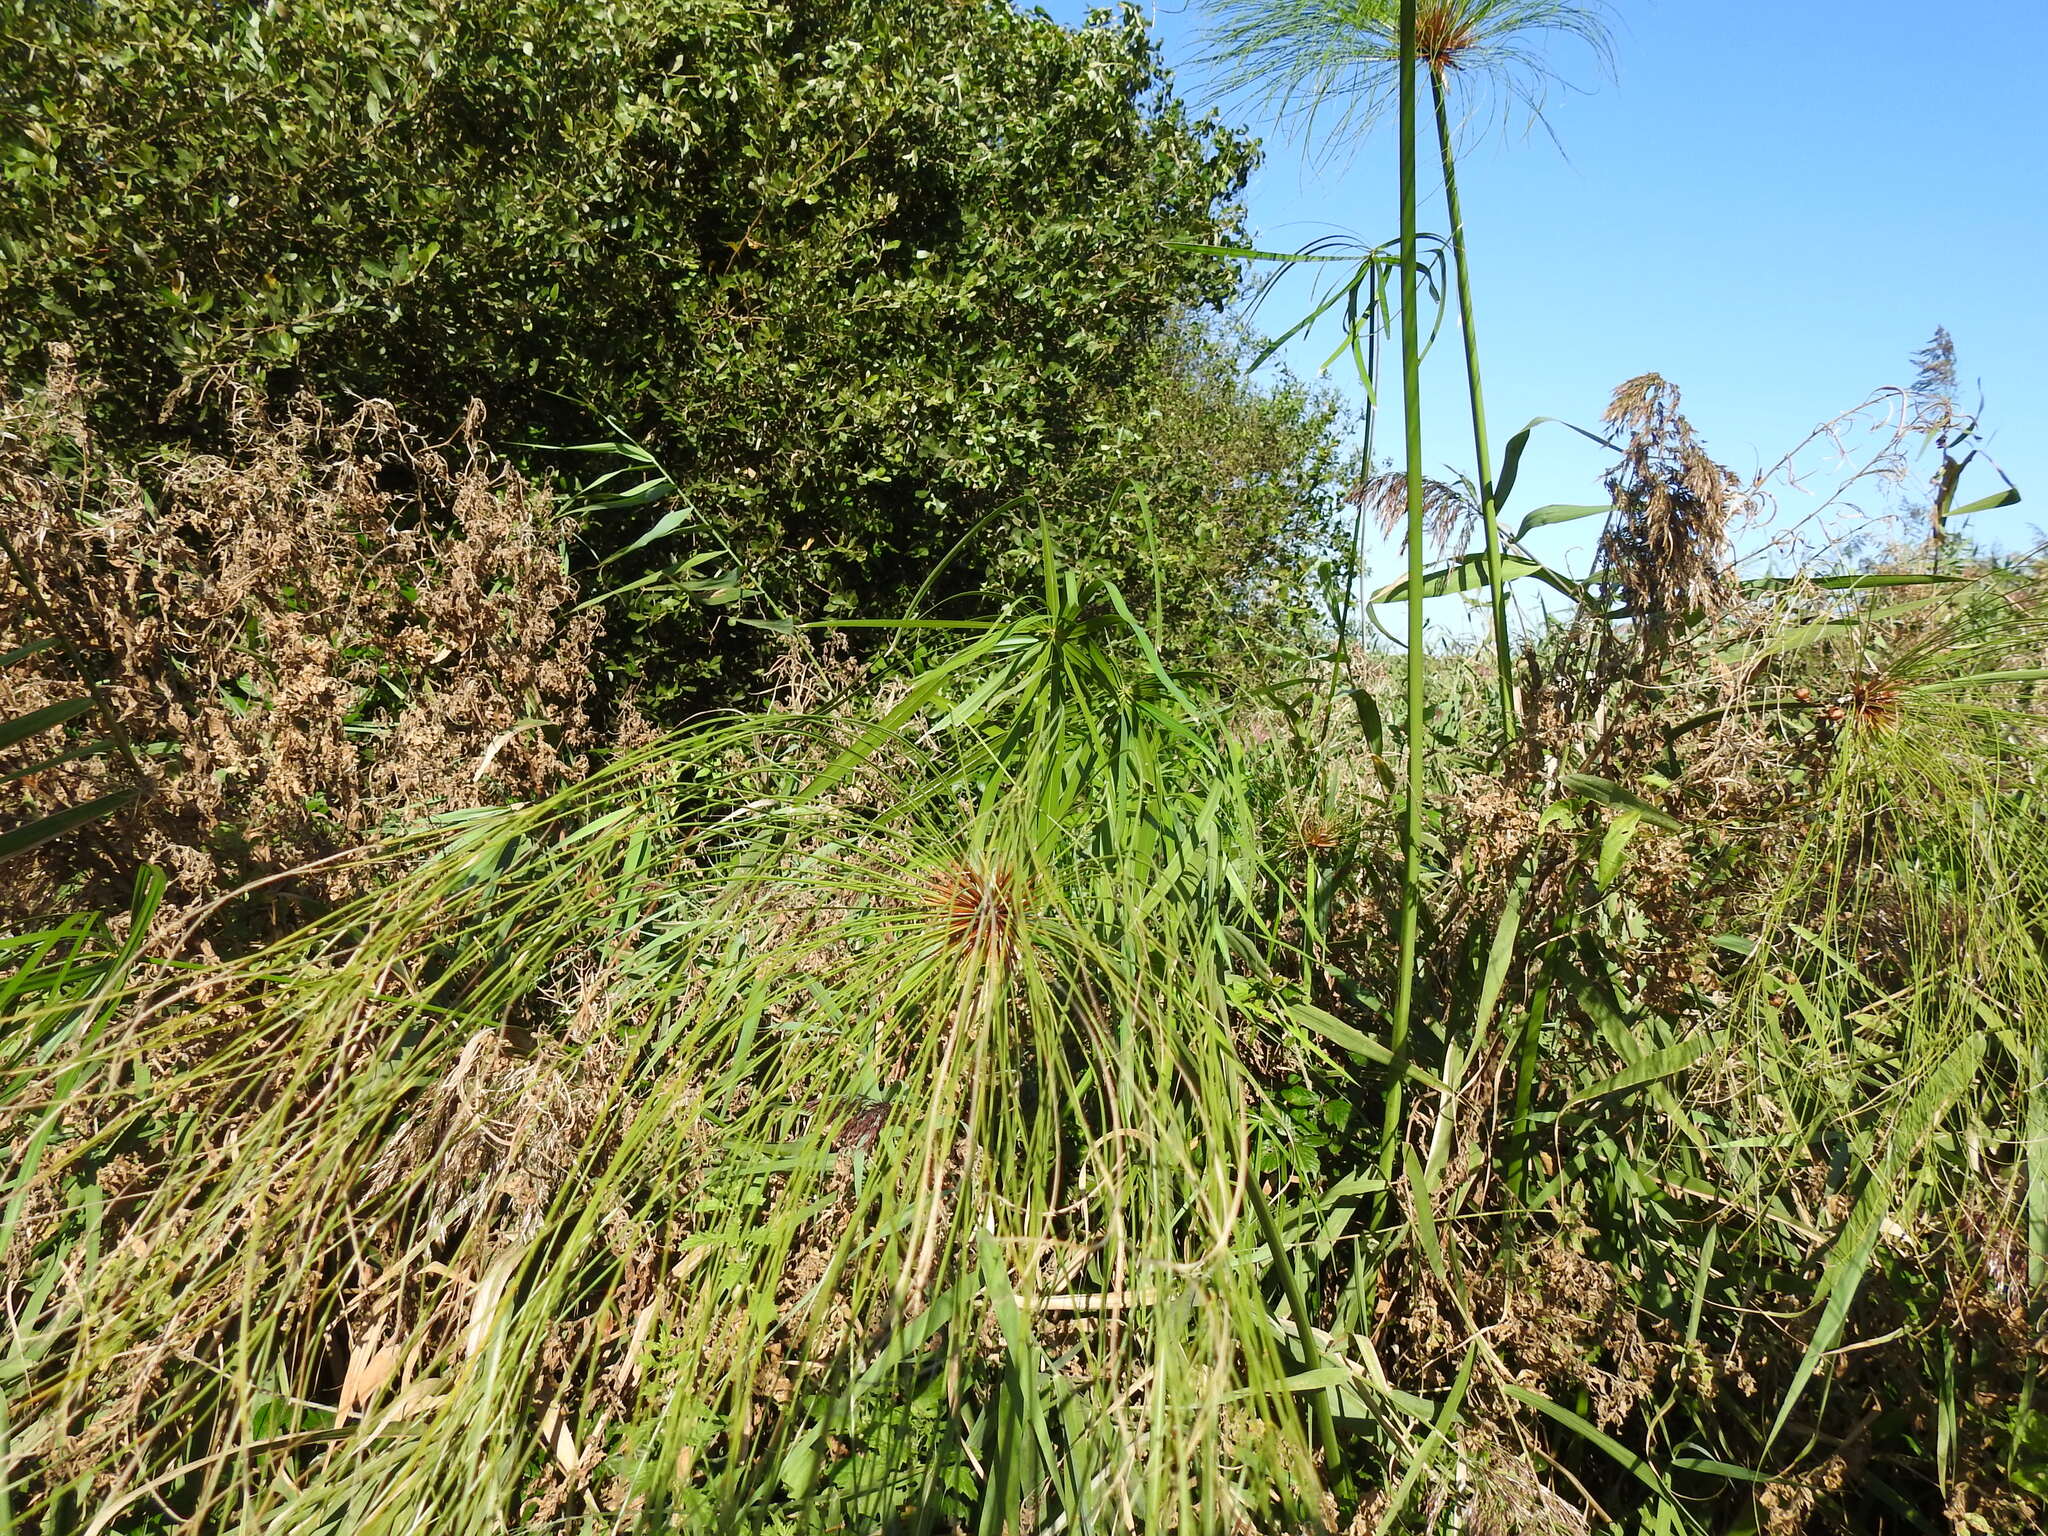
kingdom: Plantae
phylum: Tracheophyta
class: Liliopsida
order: Poales
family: Cyperaceae
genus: Cyperus
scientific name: Cyperus papyrus
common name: Papyrus
